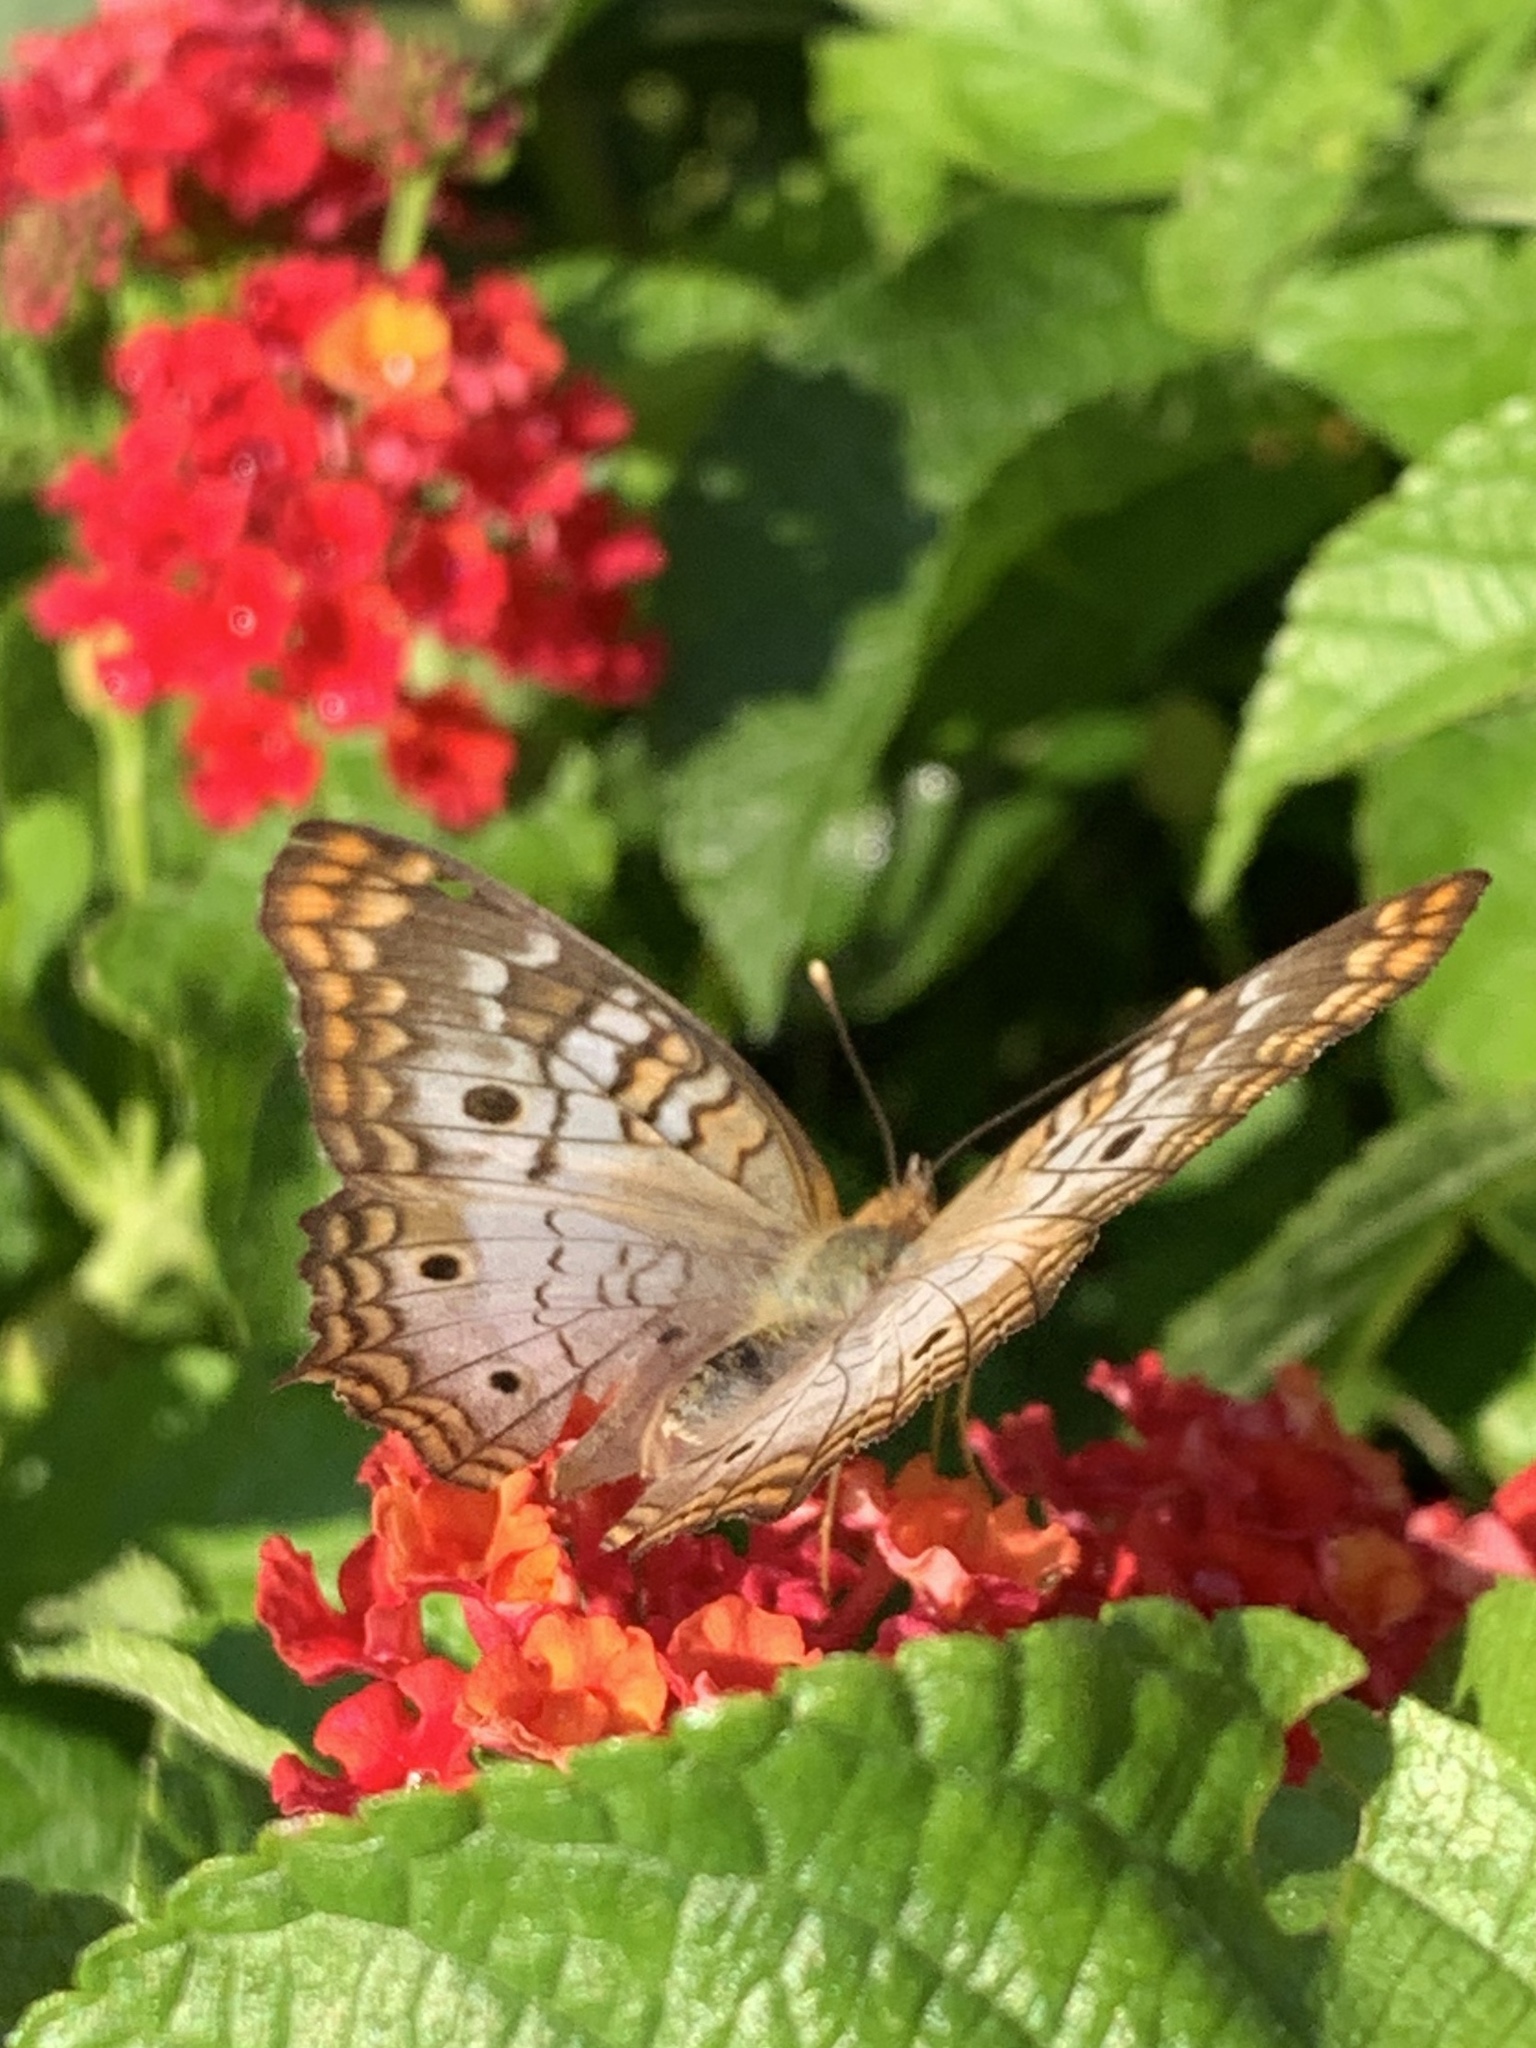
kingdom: Animalia
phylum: Arthropoda
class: Insecta
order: Lepidoptera
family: Nymphalidae
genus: Anartia
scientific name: Anartia jatrophae
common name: White peacock
